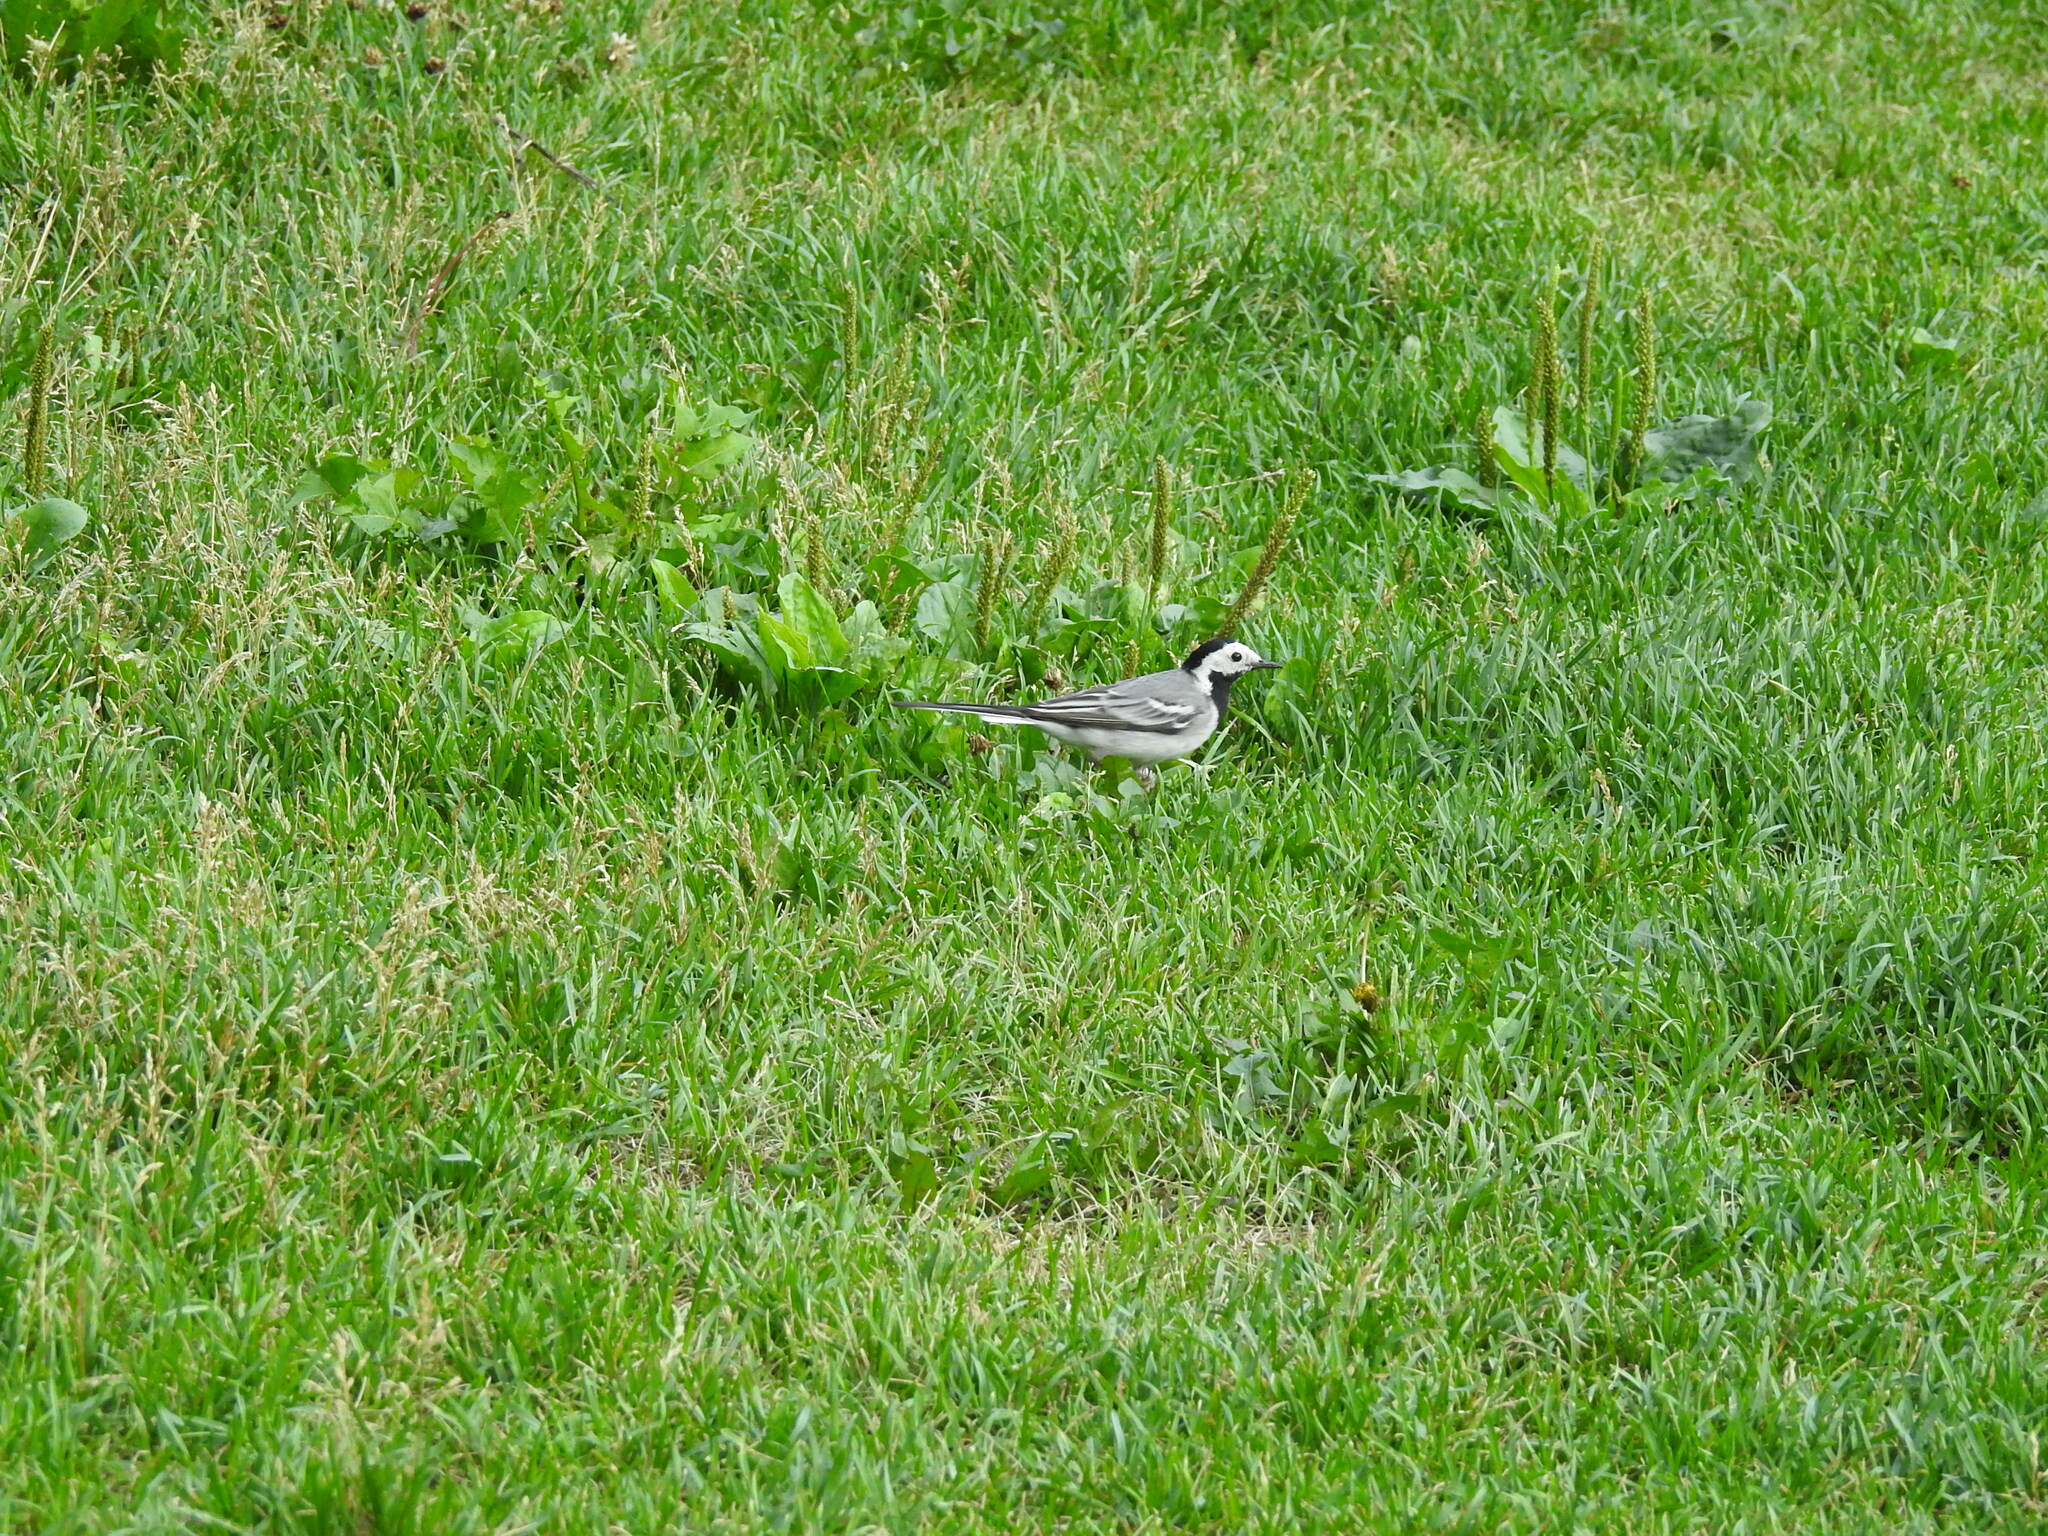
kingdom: Animalia
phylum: Chordata
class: Aves
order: Passeriformes
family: Motacillidae
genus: Motacilla
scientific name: Motacilla alba
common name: White wagtail
